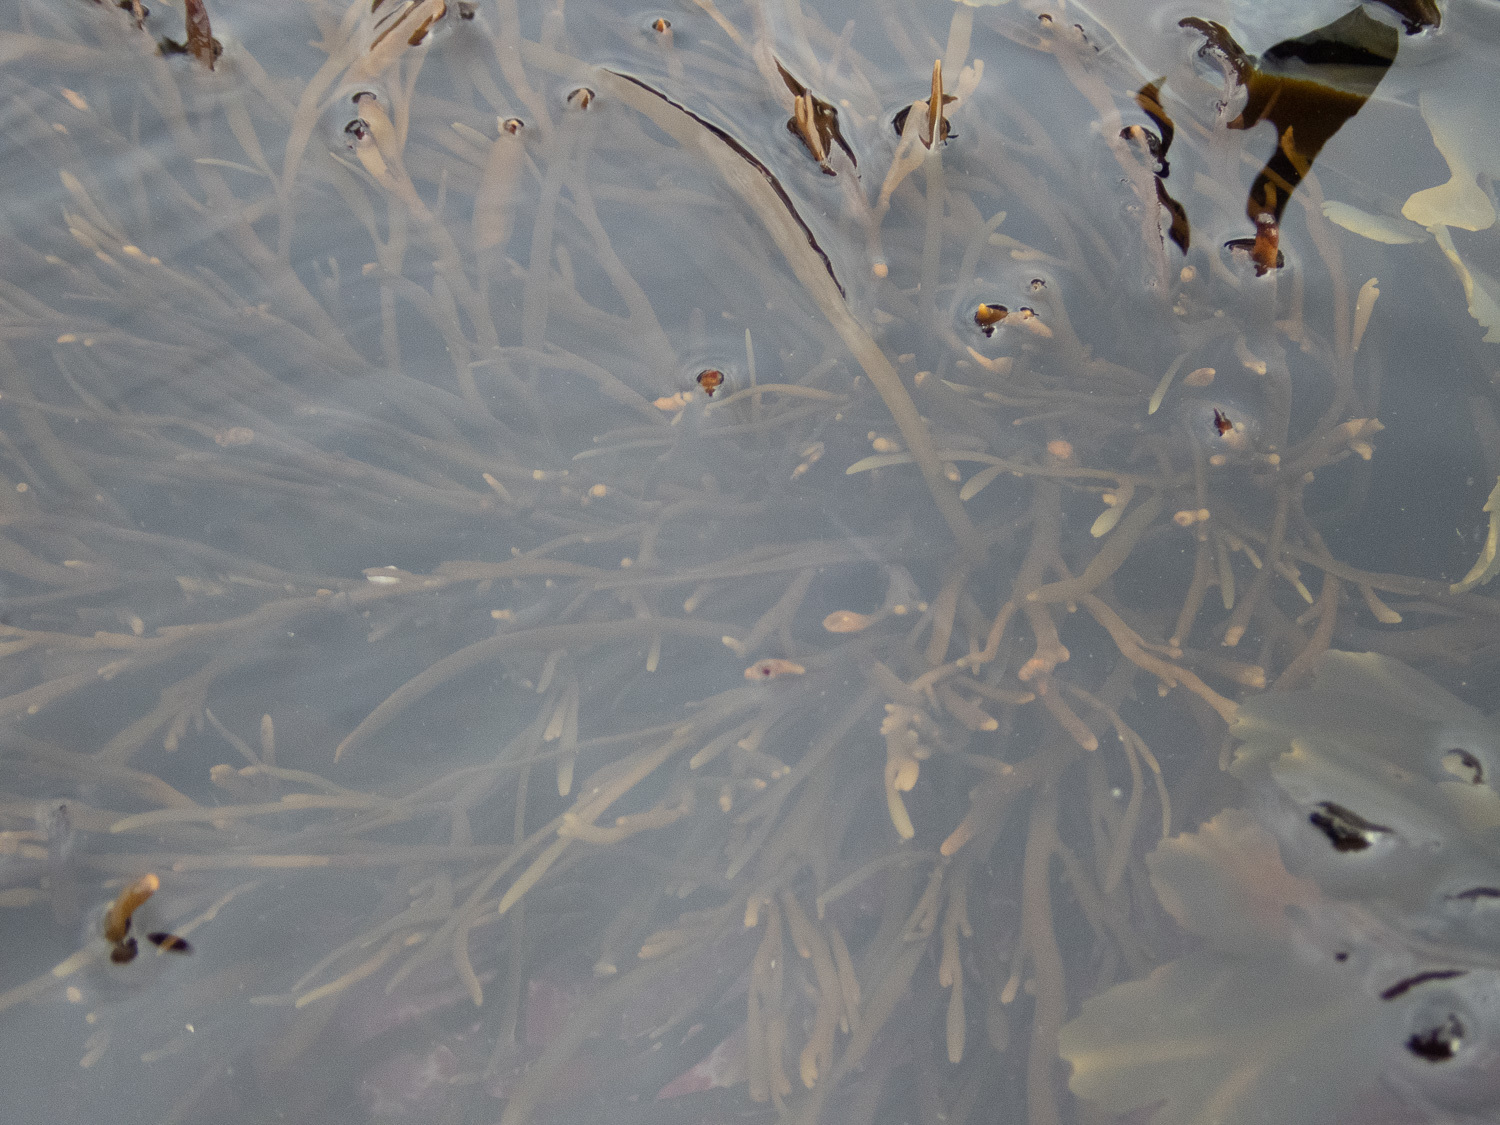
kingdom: Chromista
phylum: Ochrophyta
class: Phaeophyceae
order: Fucales
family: Sargassaceae
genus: Halidrys
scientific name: Halidrys siliquosa
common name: Sea oak
